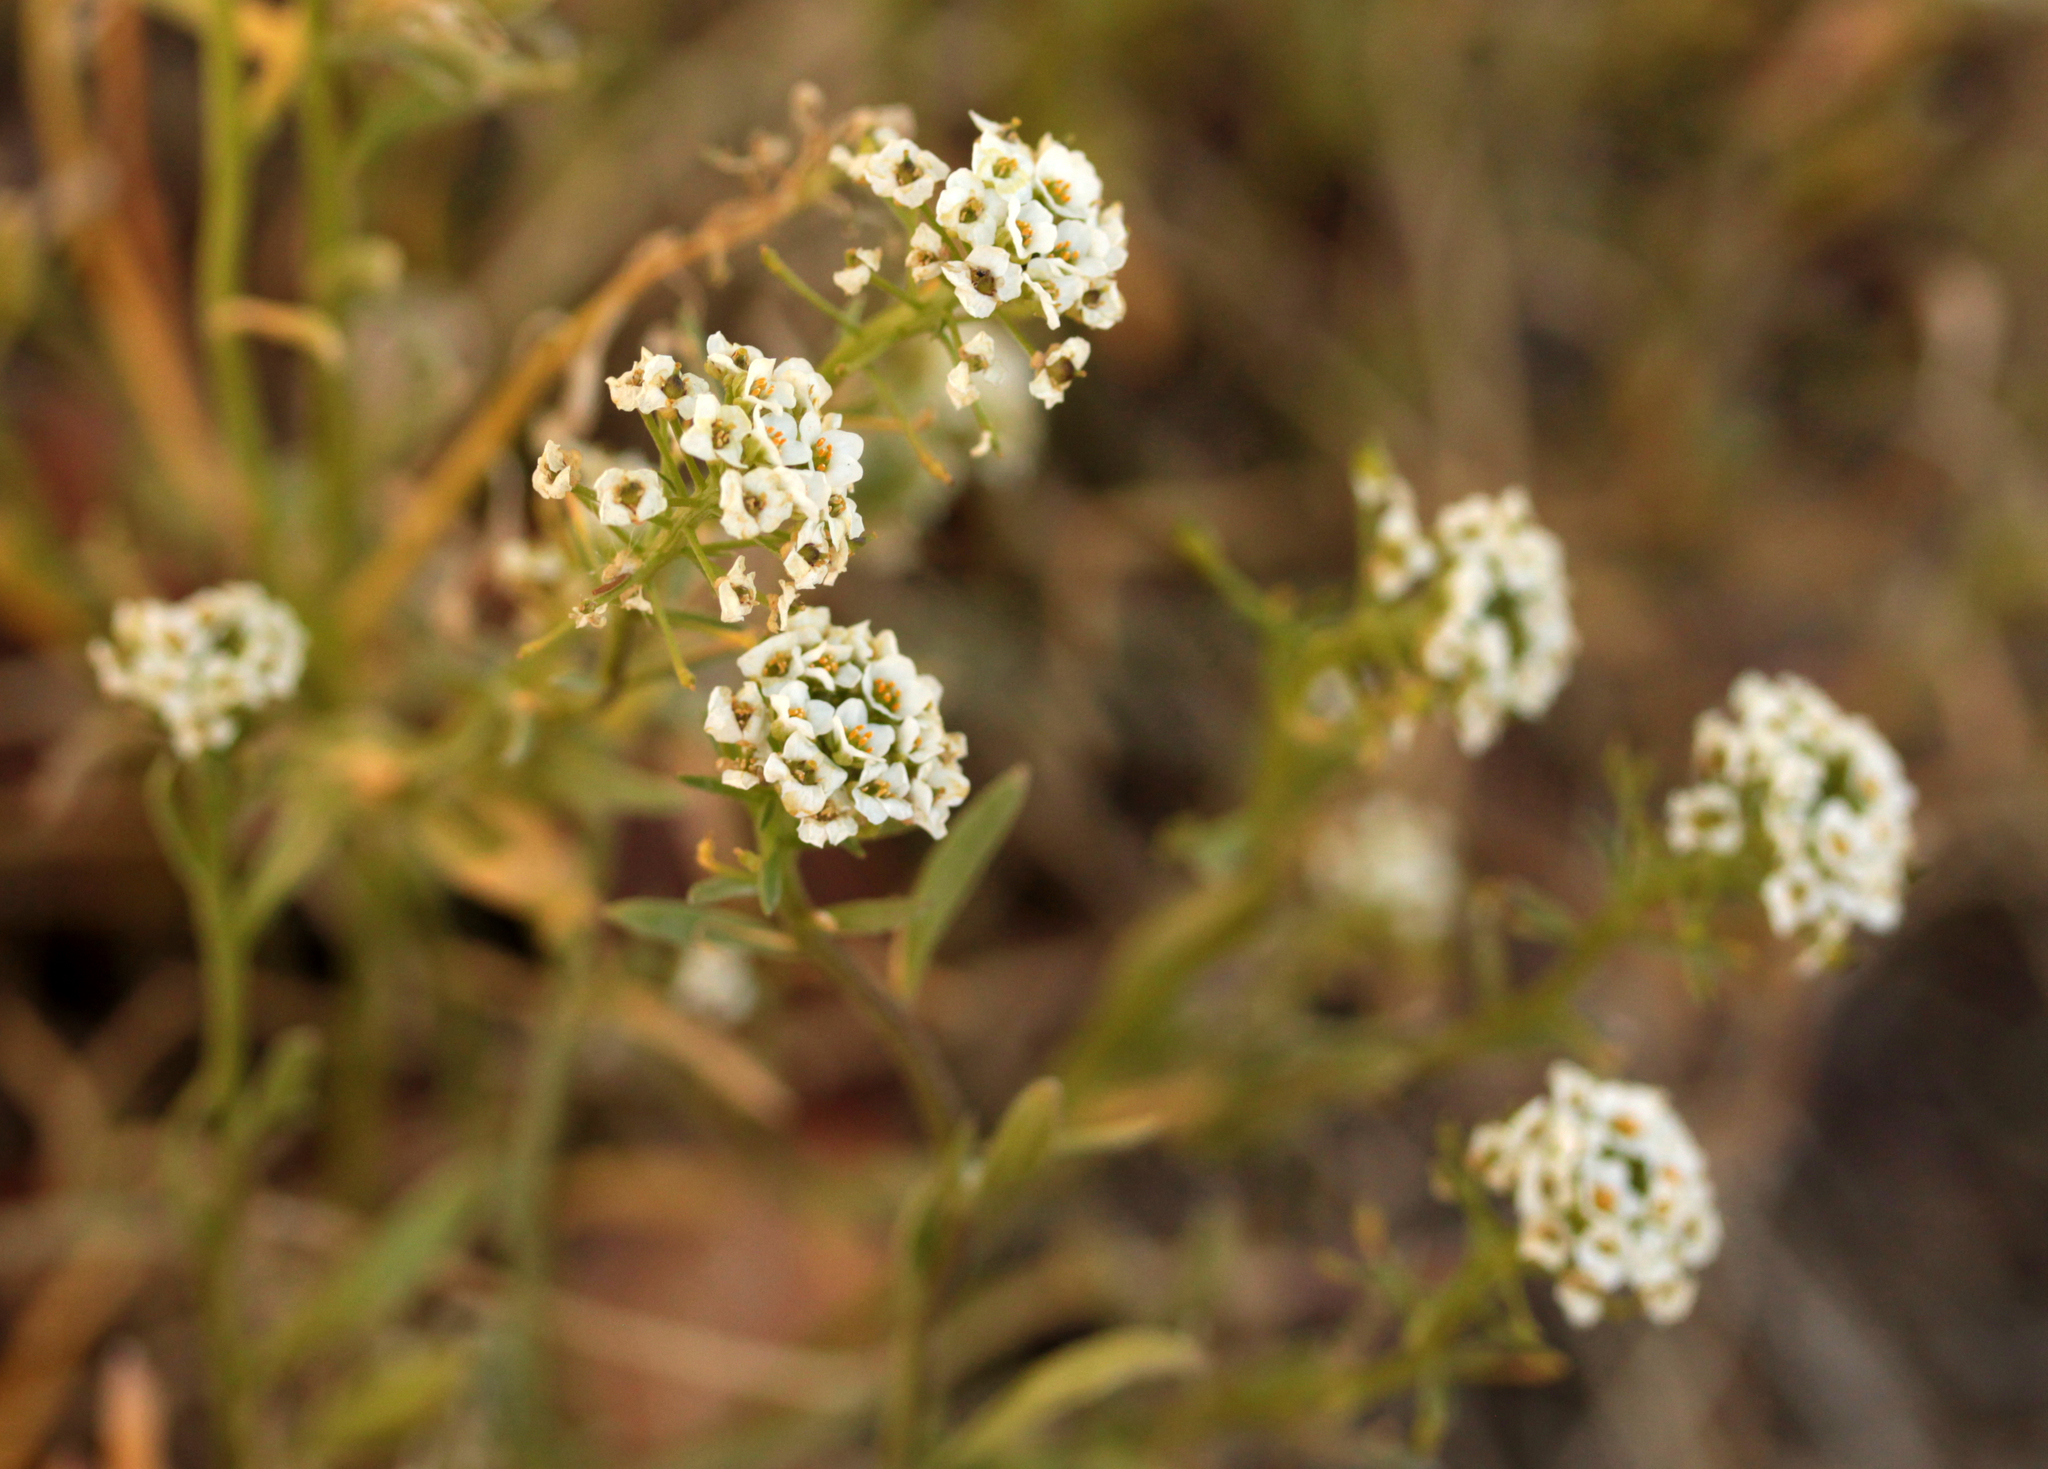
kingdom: Plantae
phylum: Tracheophyta
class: Magnoliopsida
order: Brassicales
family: Brassicaceae
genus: Lobularia
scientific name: Lobularia maritima
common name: Sweet alison
